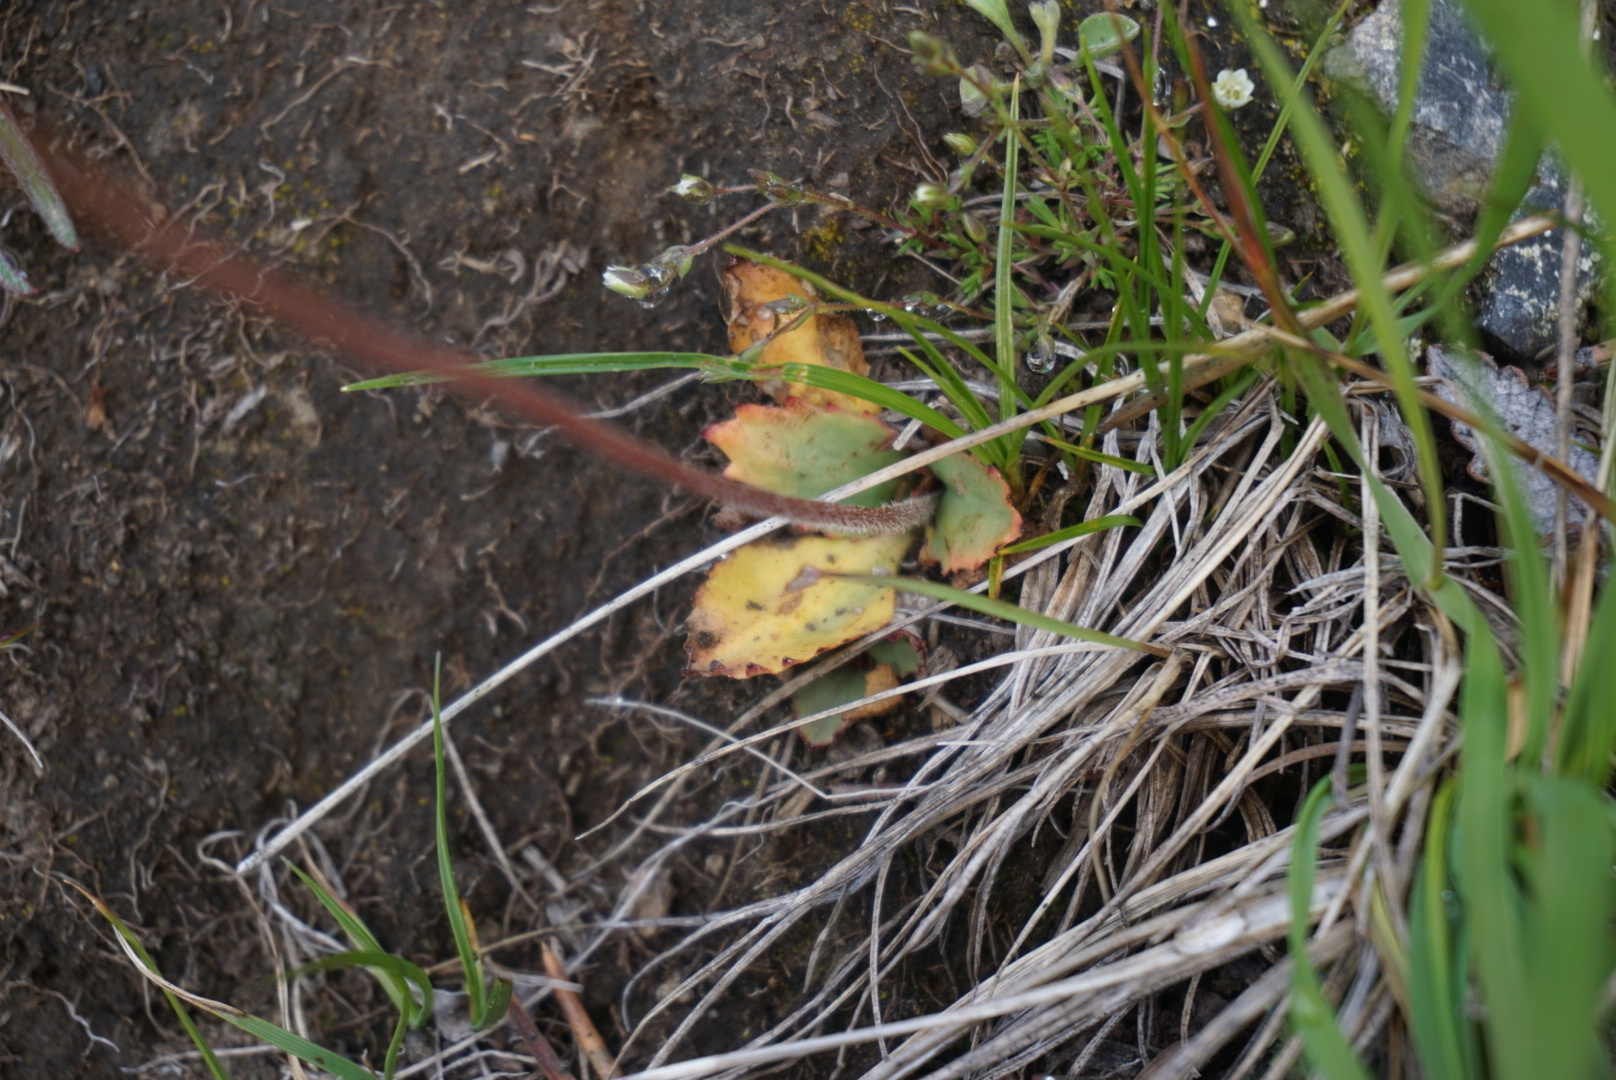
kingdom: Plantae
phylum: Tracheophyta
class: Magnoliopsida
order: Saxifragales
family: Saxifragaceae
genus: Micranthes
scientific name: Micranthes occidentalis
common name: Alberta saxifrage
